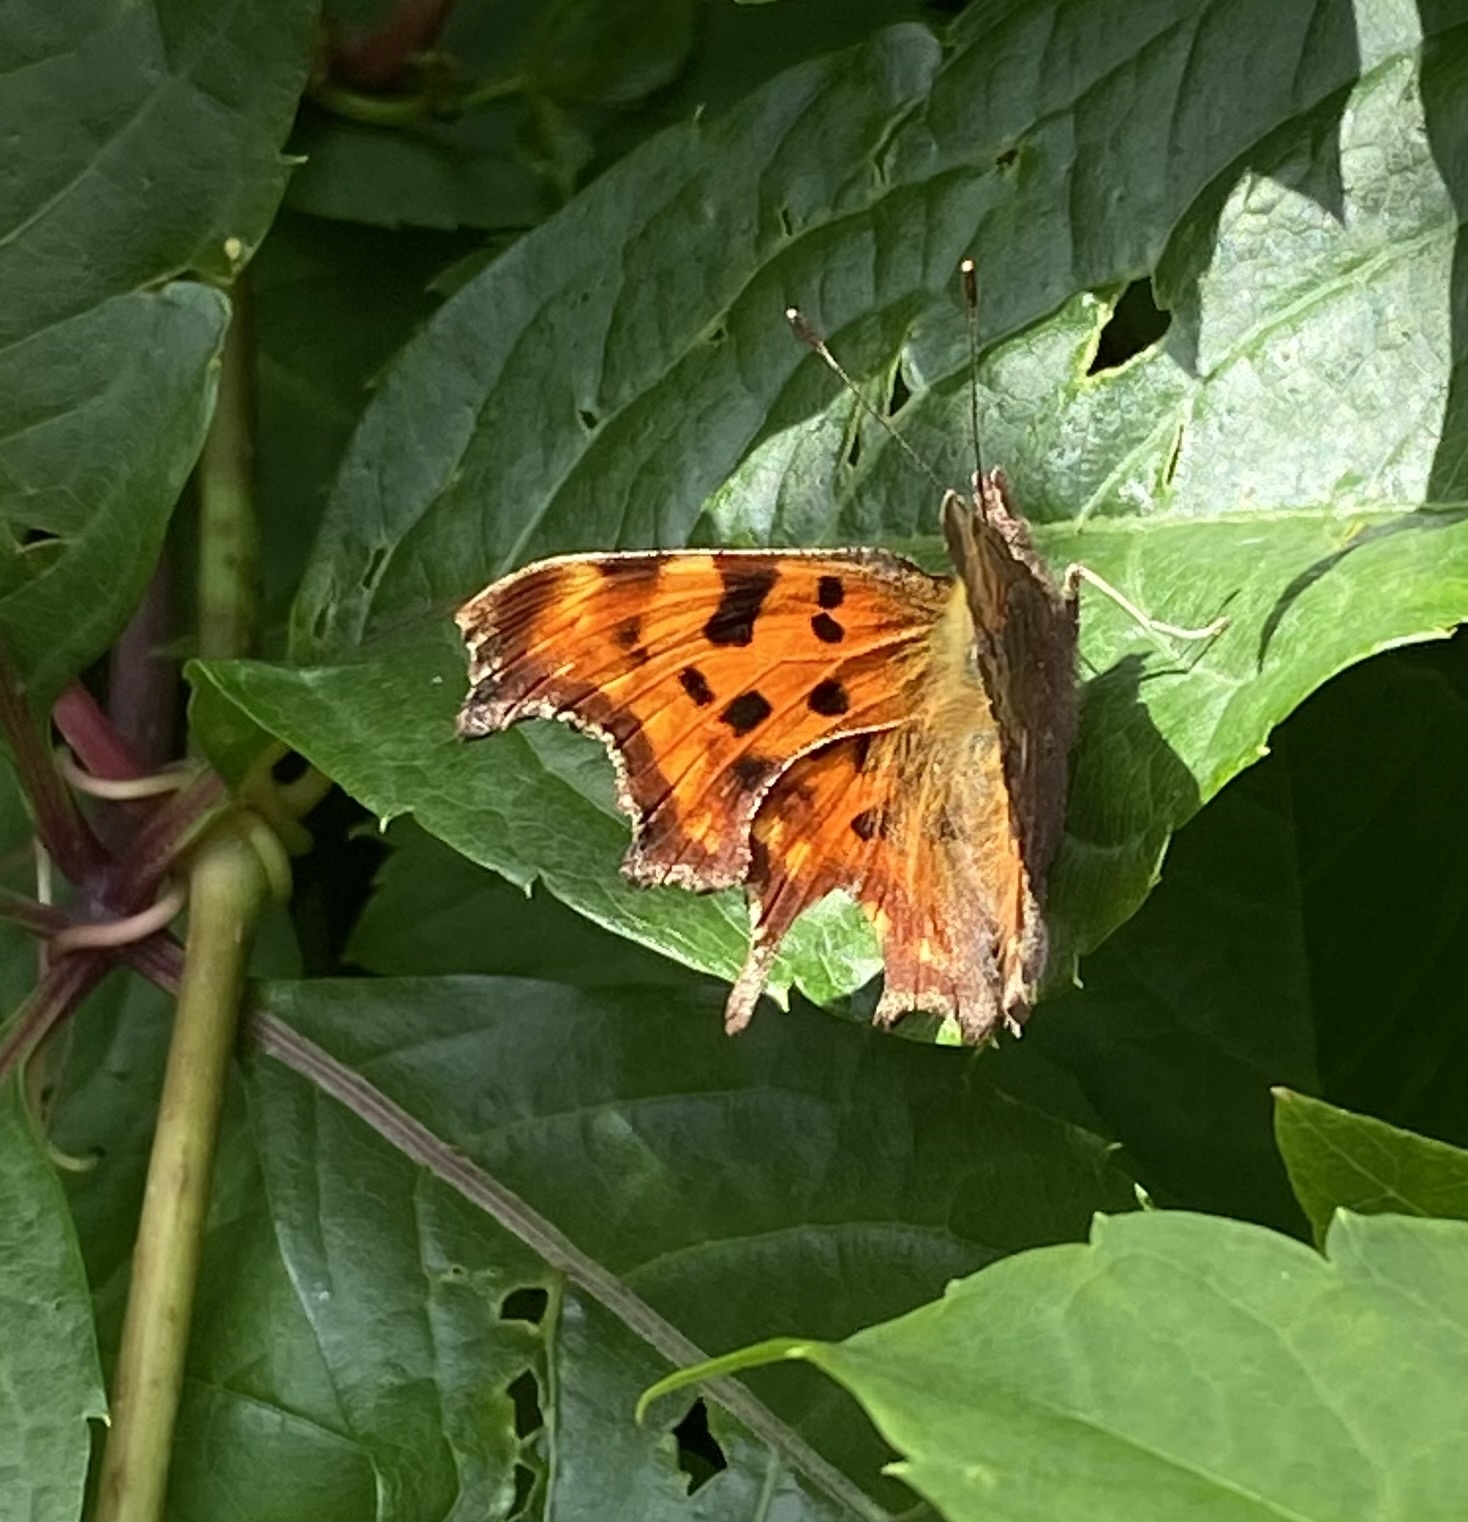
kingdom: Animalia
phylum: Arthropoda
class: Insecta
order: Lepidoptera
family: Nymphalidae
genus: Polygonia
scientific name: Polygonia c-album
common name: Comma
